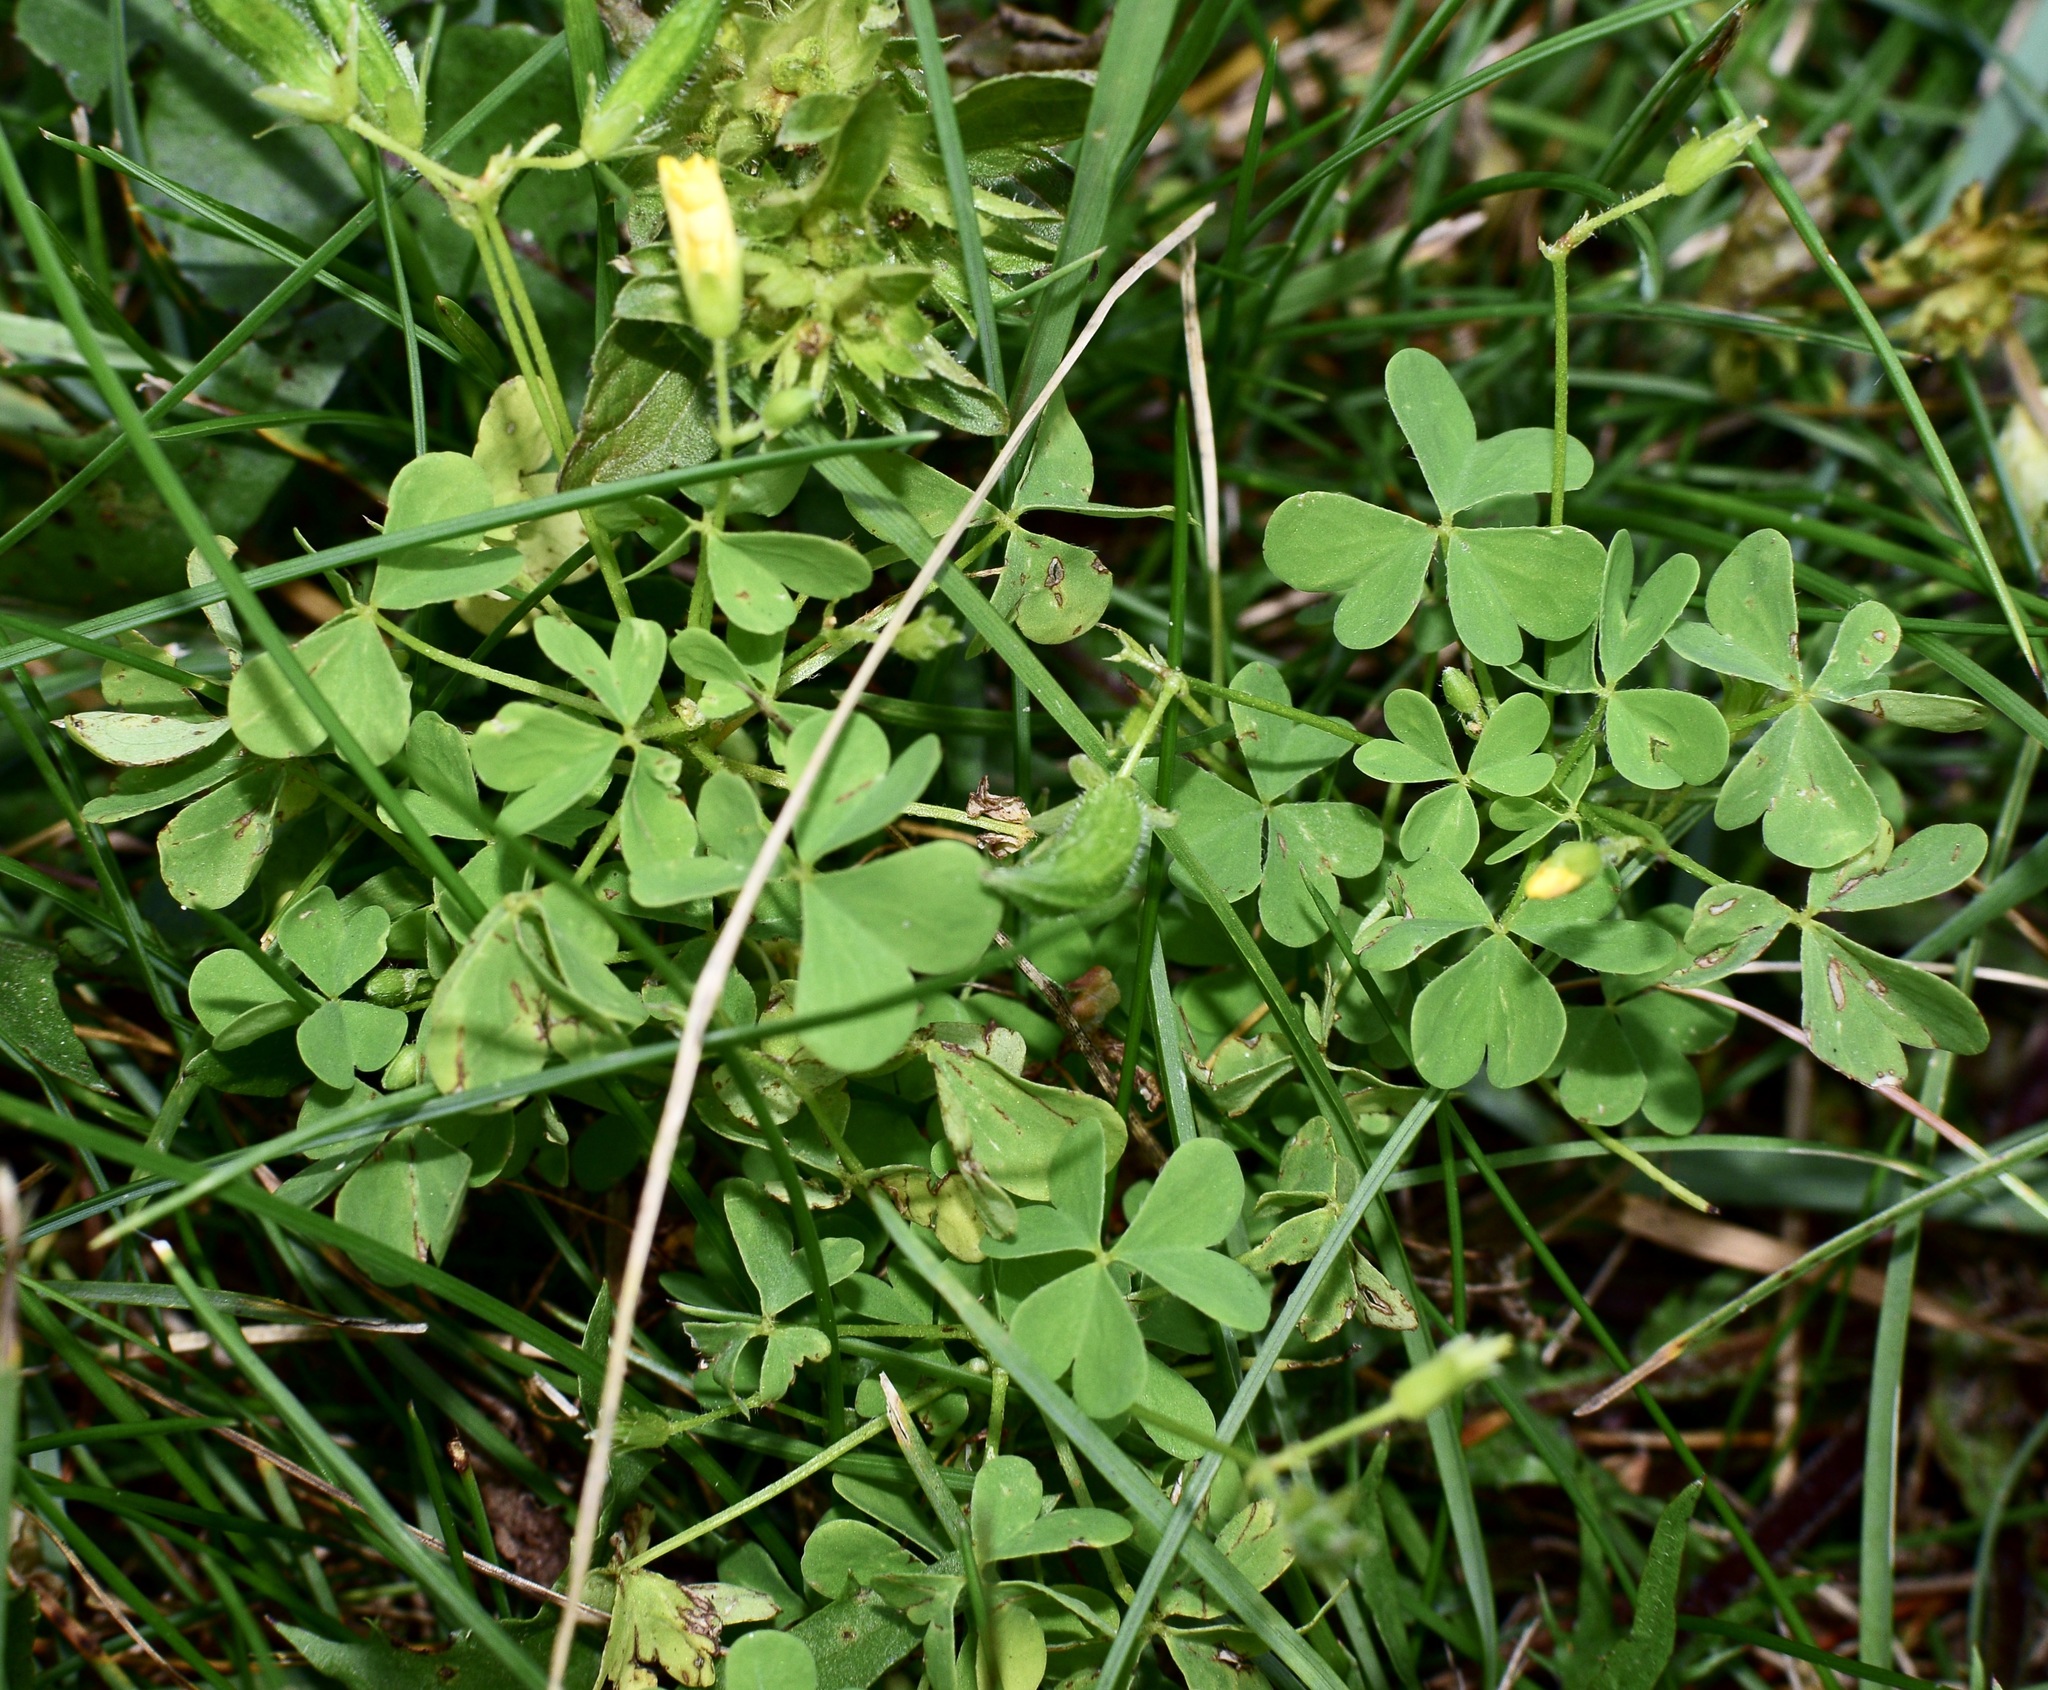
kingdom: Plantae
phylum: Tracheophyta
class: Magnoliopsida
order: Oxalidales
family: Oxalidaceae
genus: Oxalis
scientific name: Oxalis stricta
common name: Upright yellow-sorrel
